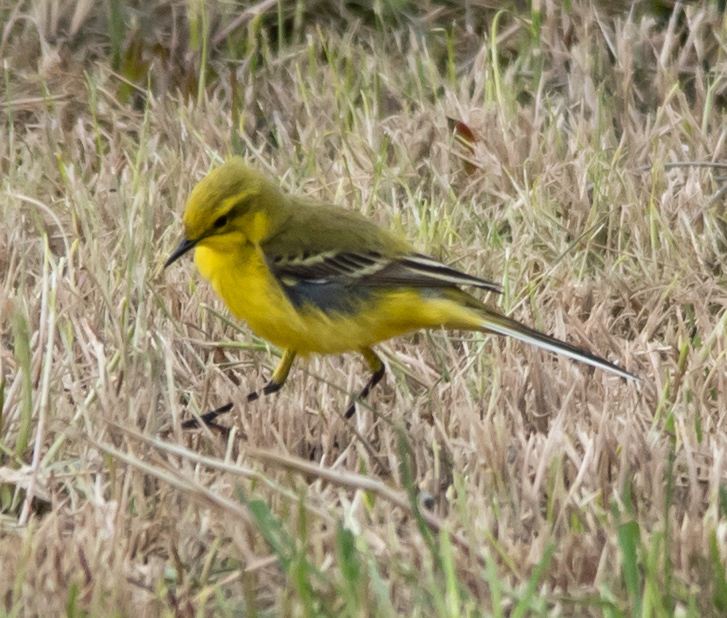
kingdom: Animalia
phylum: Chordata
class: Aves
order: Passeriformes
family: Motacillidae
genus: Motacilla
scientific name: Motacilla flava
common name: Western yellow wagtail
